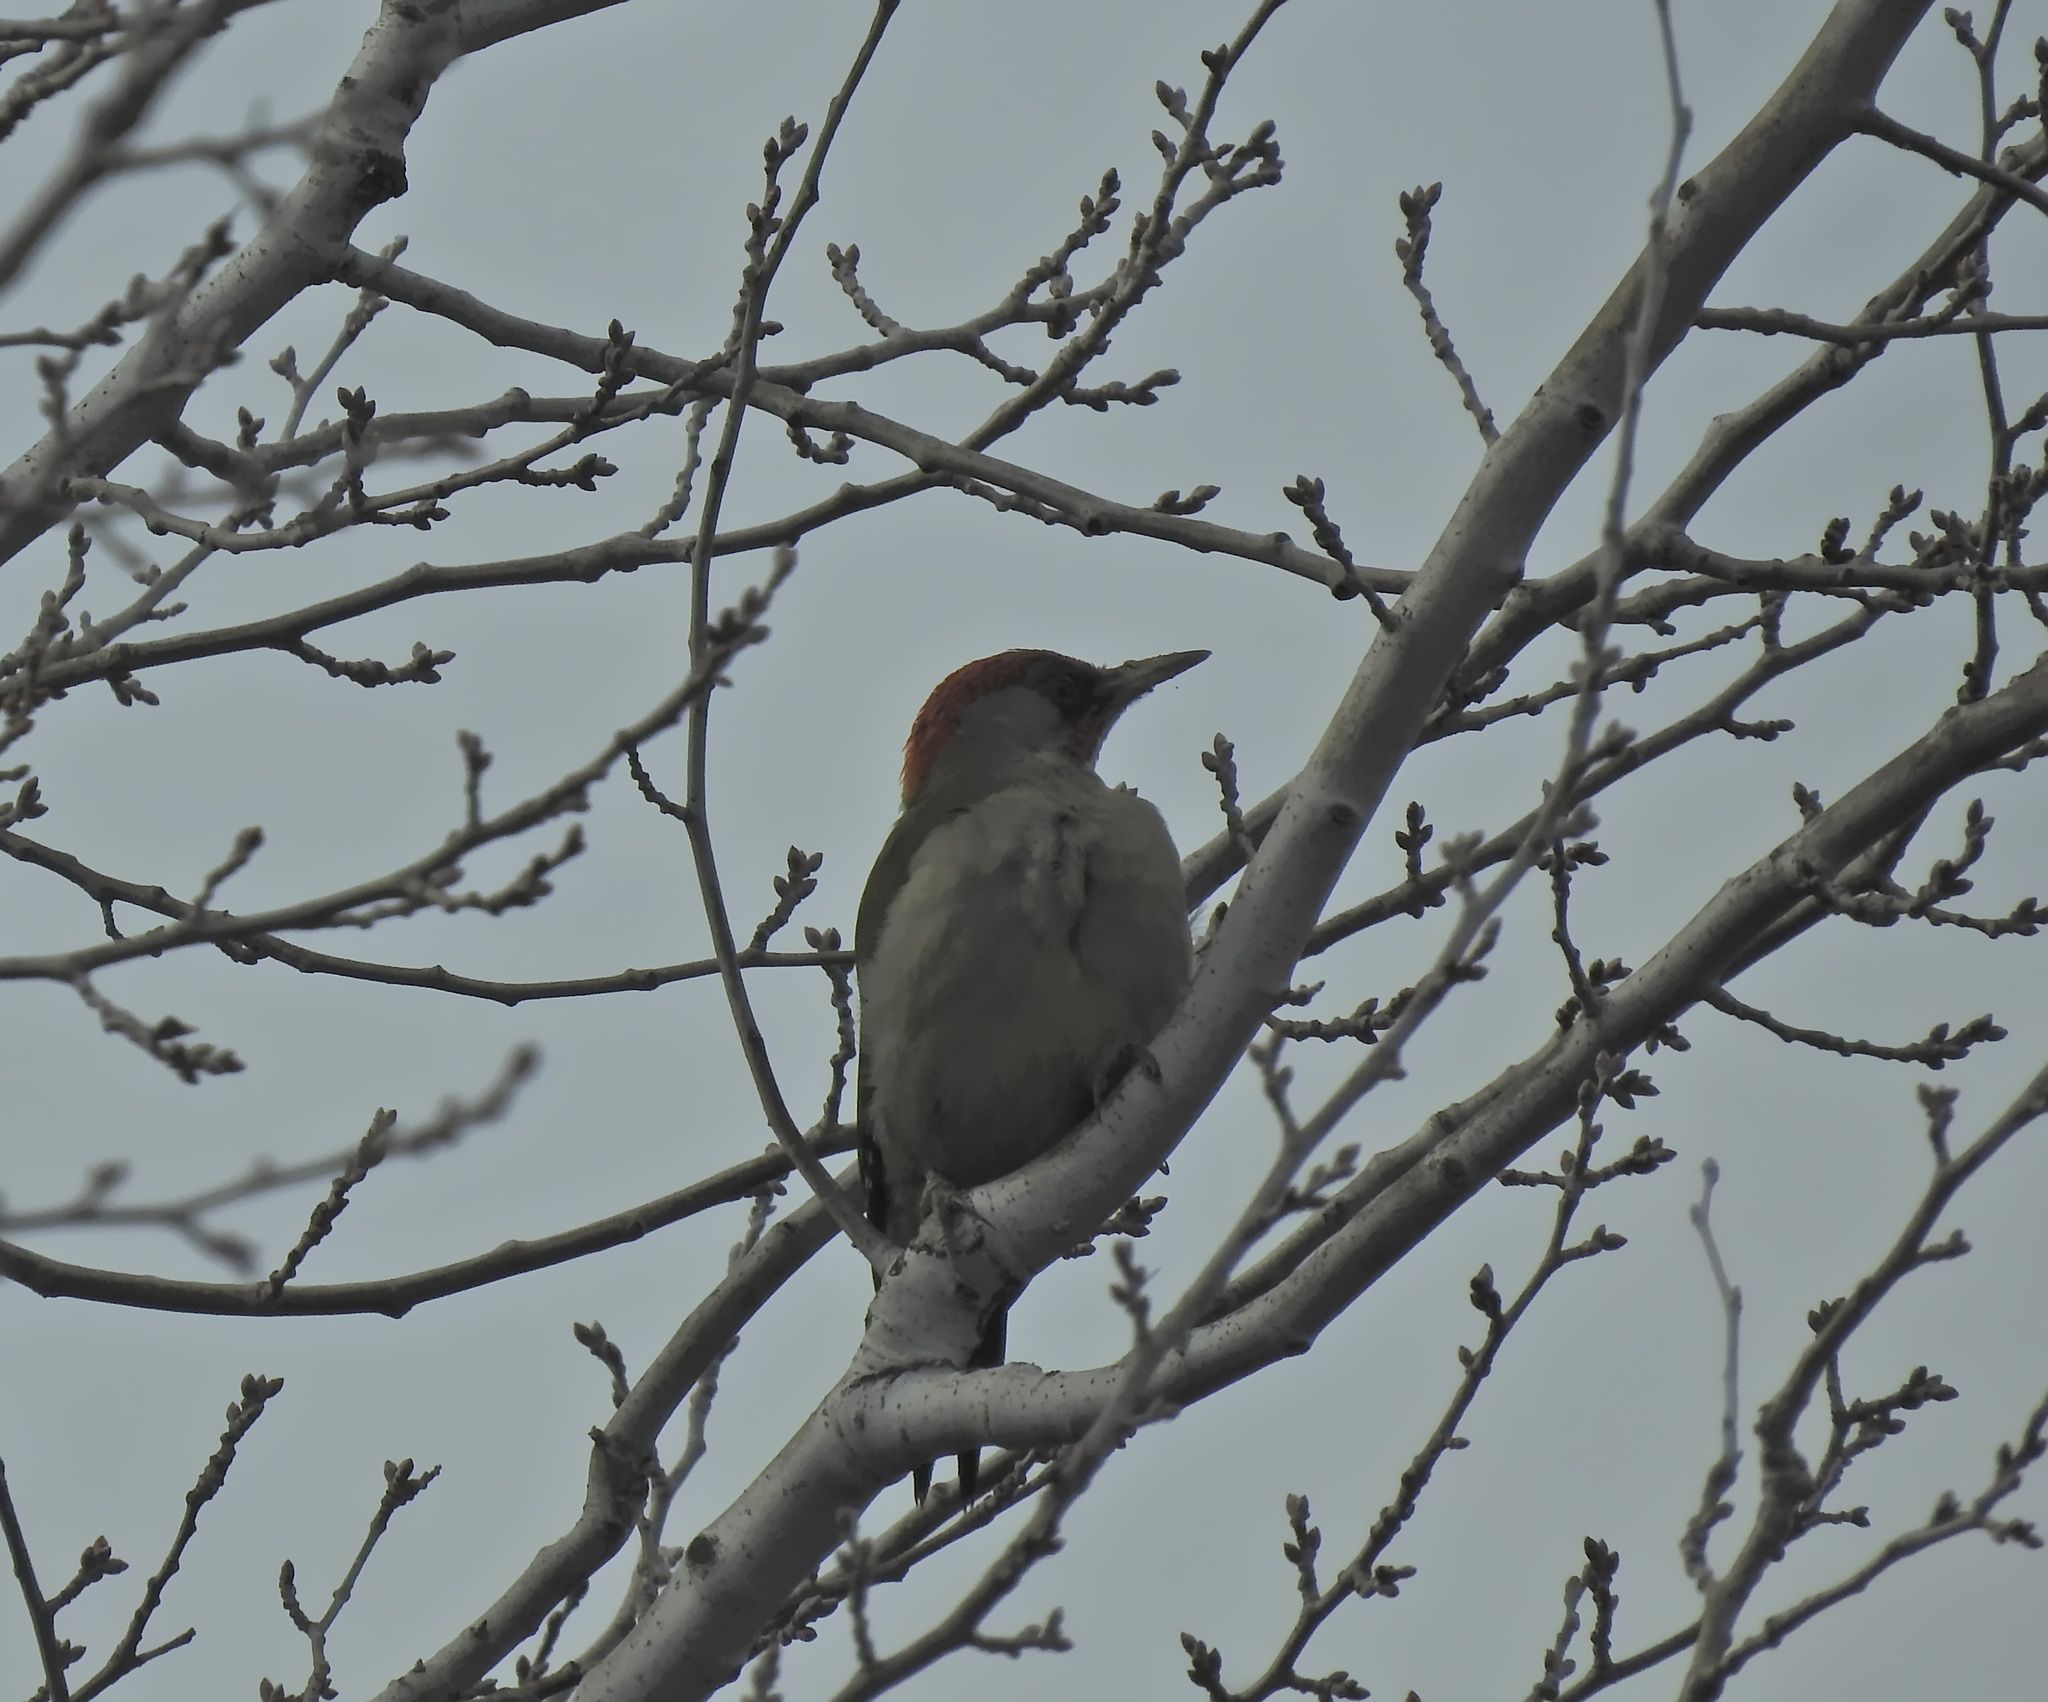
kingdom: Animalia
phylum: Chordata
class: Aves
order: Piciformes
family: Picidae
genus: Picus
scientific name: Picus sharpei
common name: Iberian green woodpecker
